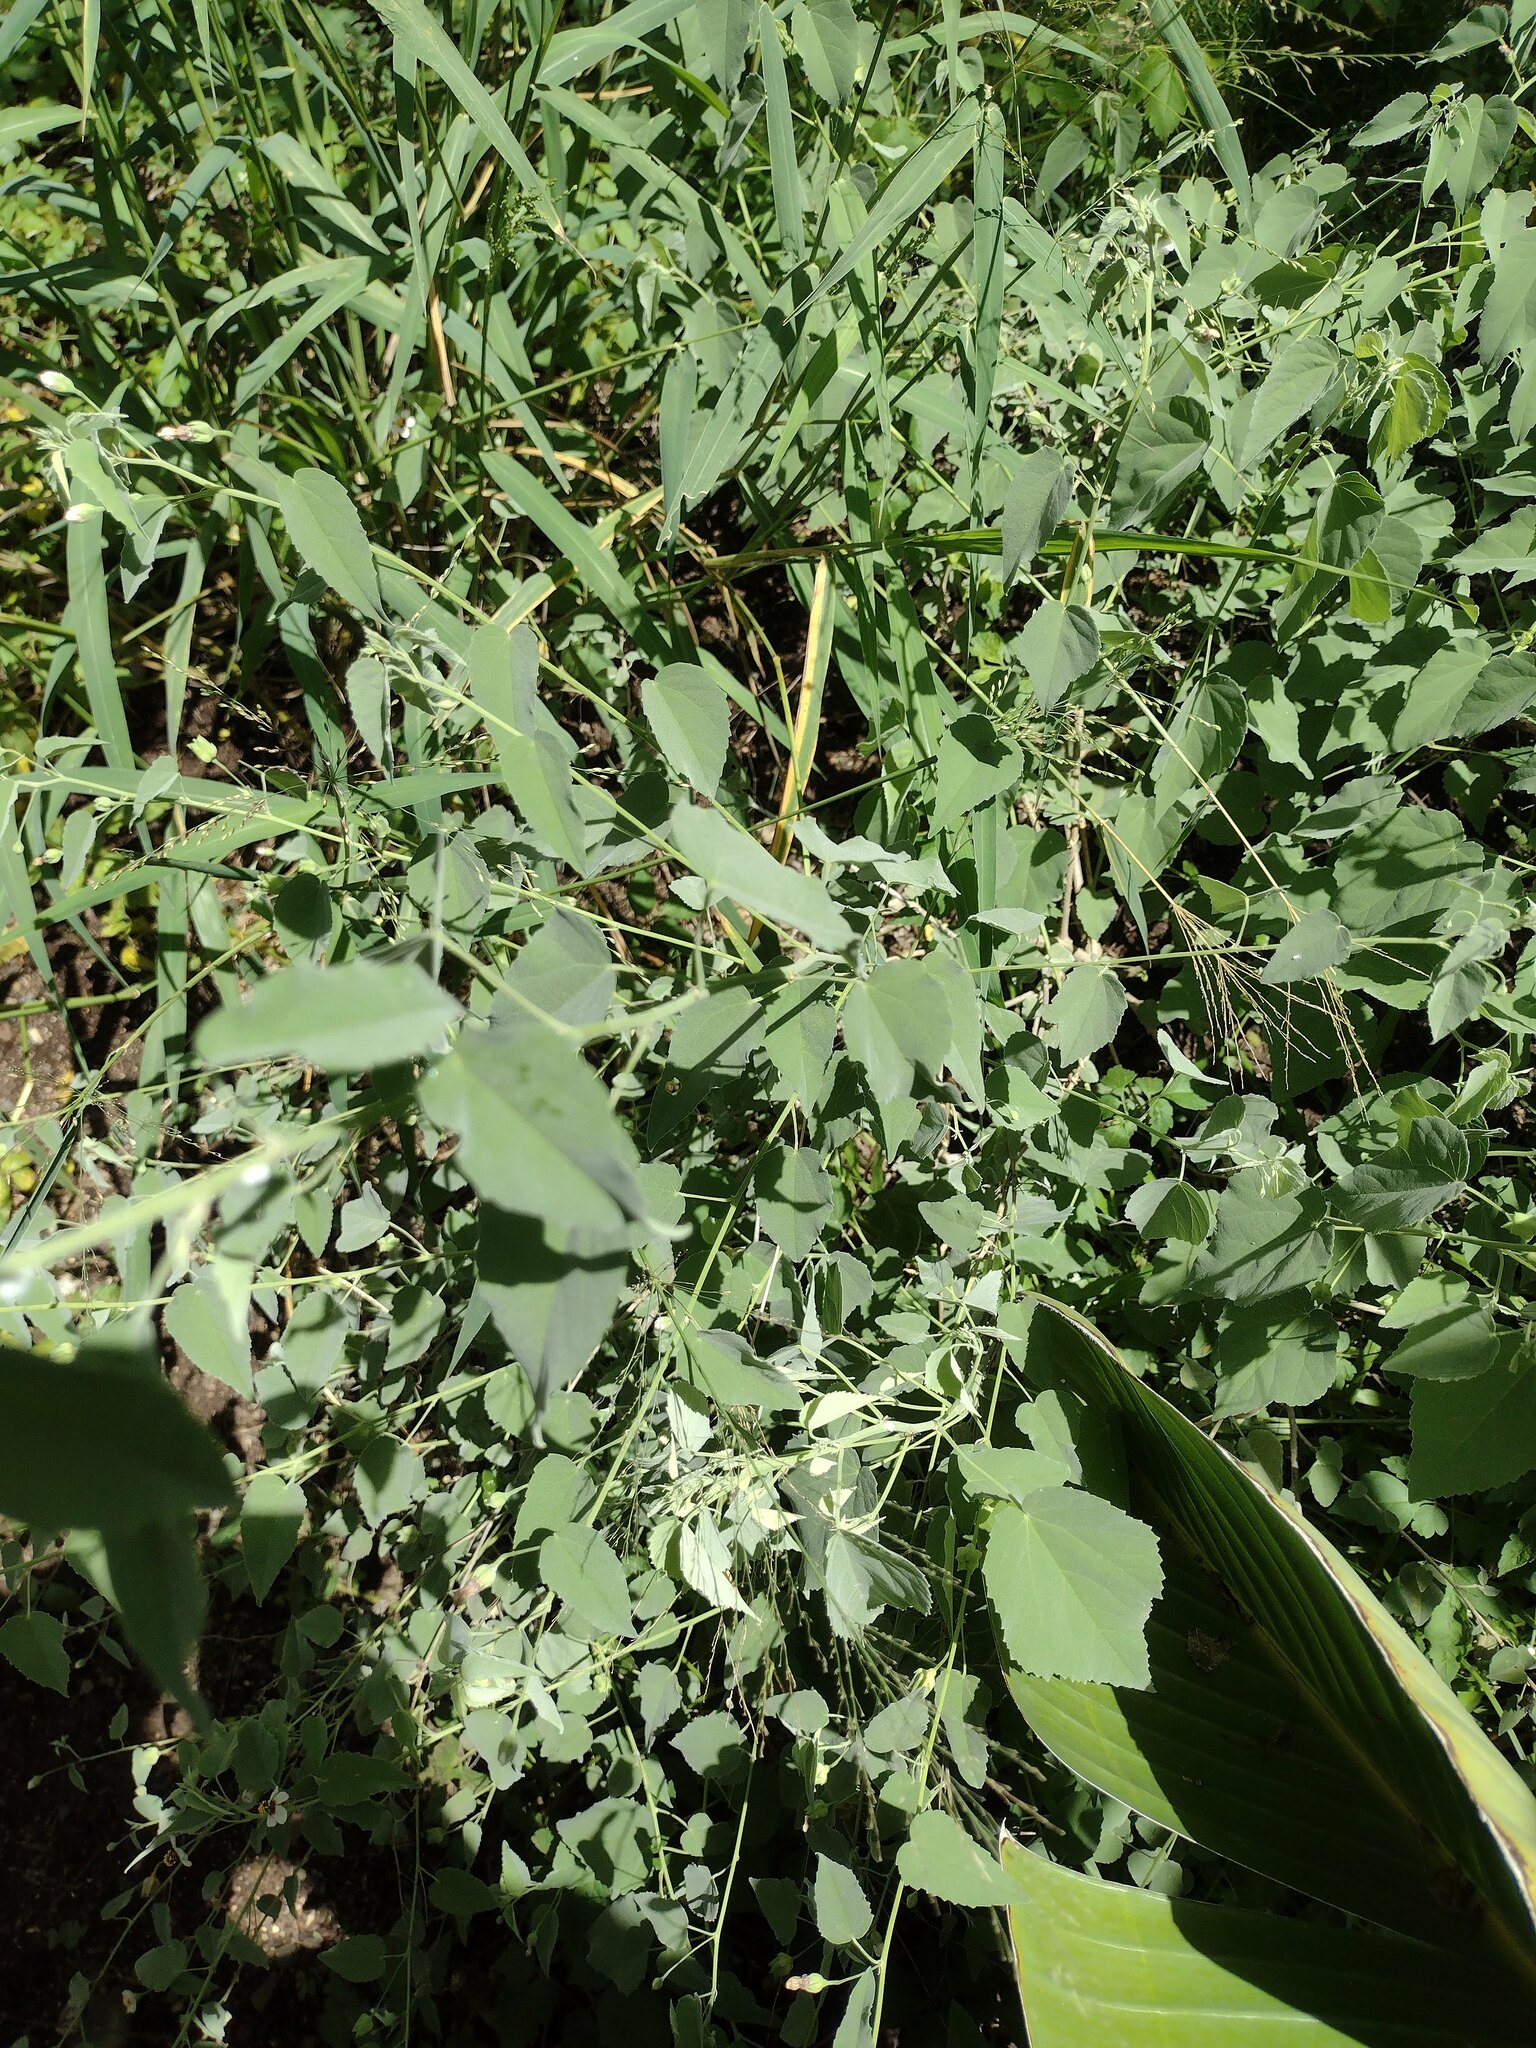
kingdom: Plantae
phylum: Tracheophyta
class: Magnoliopsida
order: Malvales
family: Malvaceae
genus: Abutilon
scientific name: Abutilon incanum
